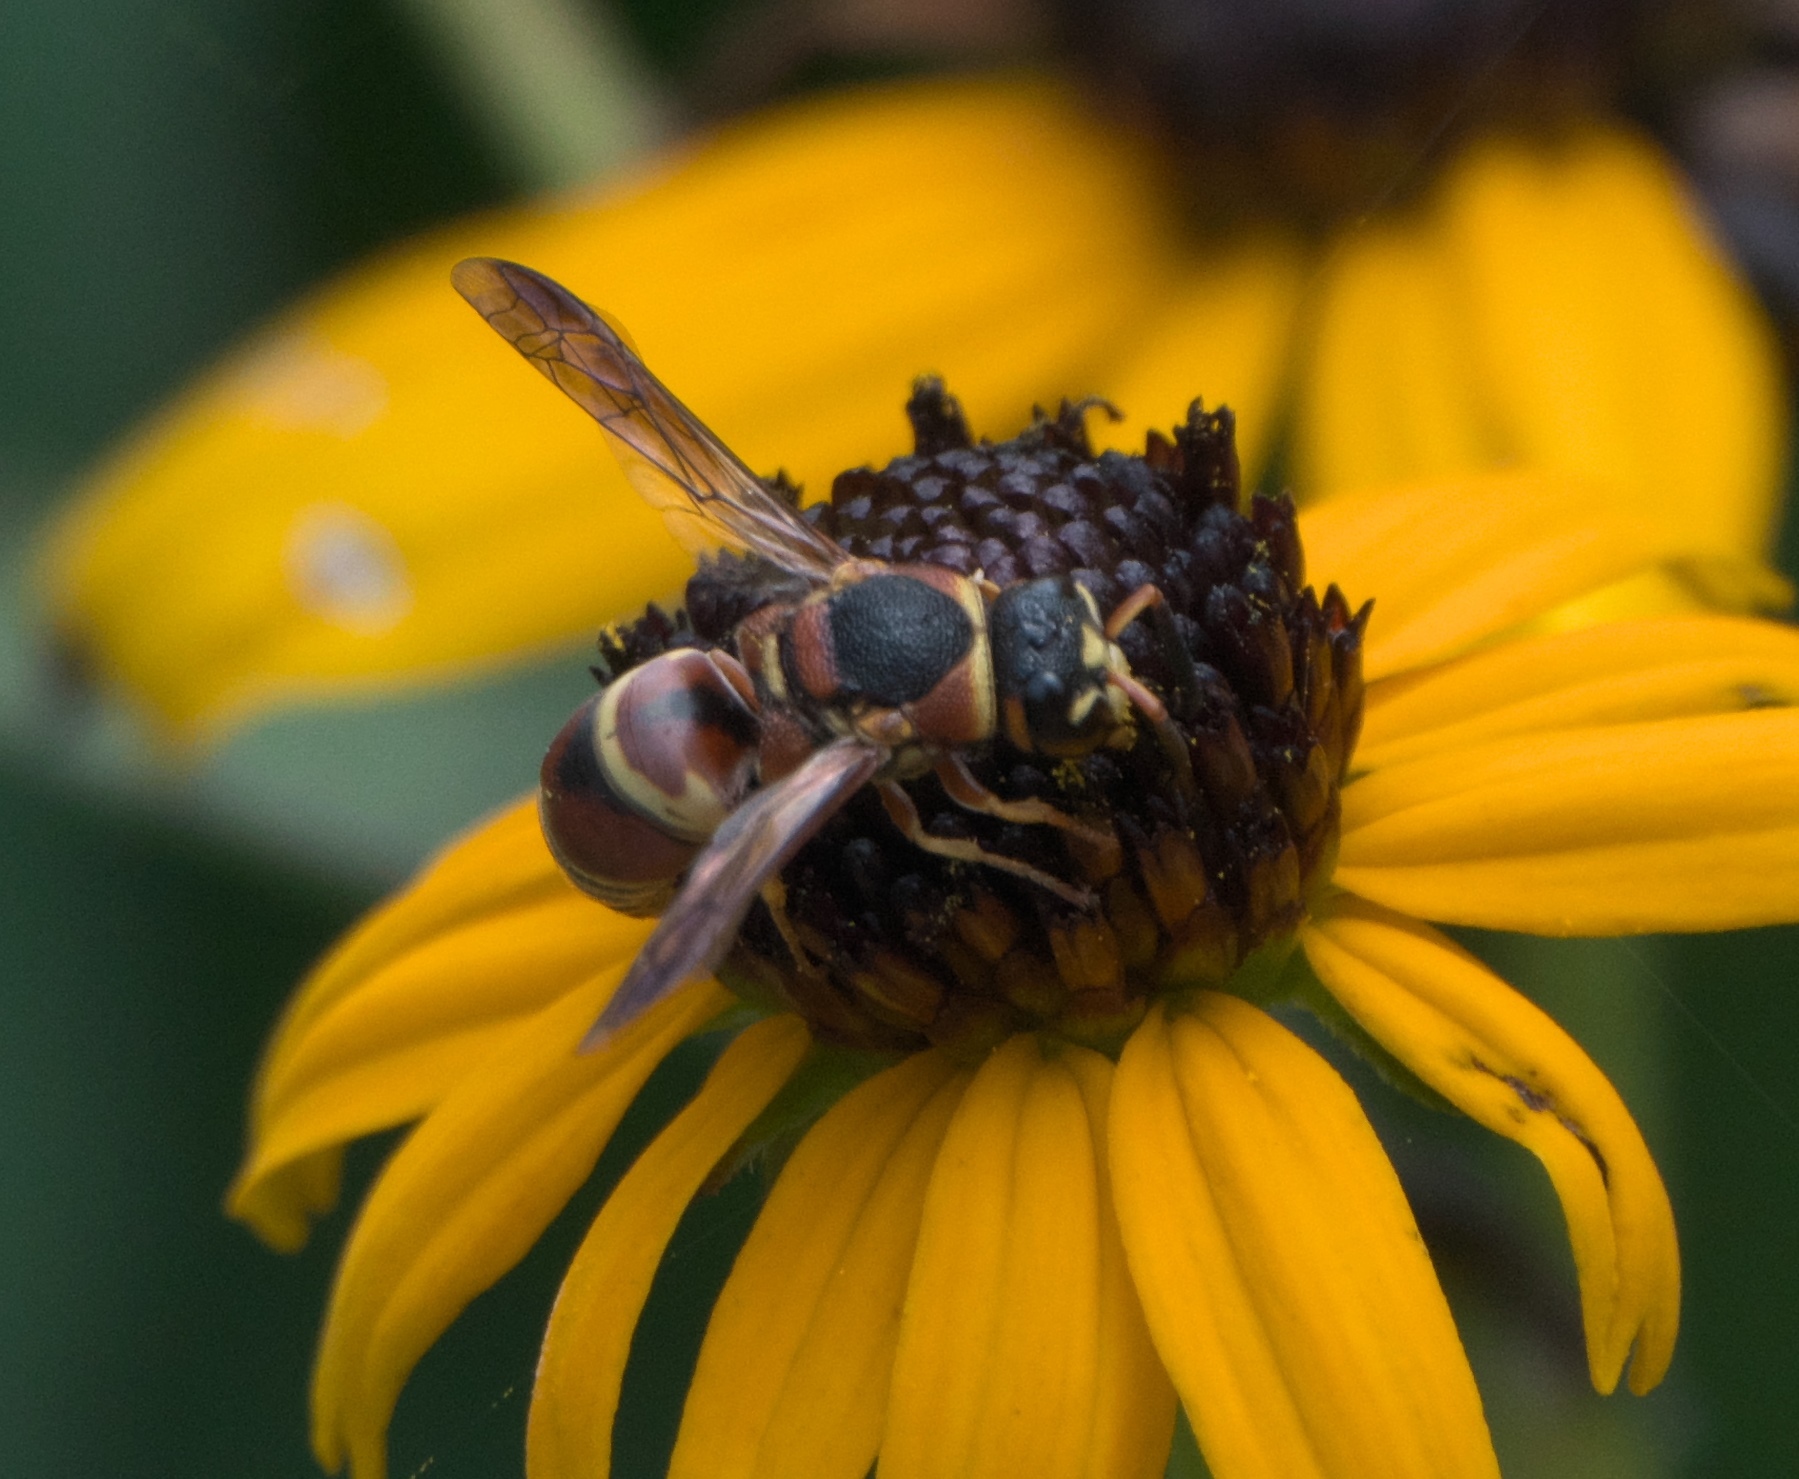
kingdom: Animalia
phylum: Arthropoda
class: Insecta
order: Hymenoptera
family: Eumenidae
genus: Euodynerus
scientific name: Euodynerus hidalgo
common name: Wasp
